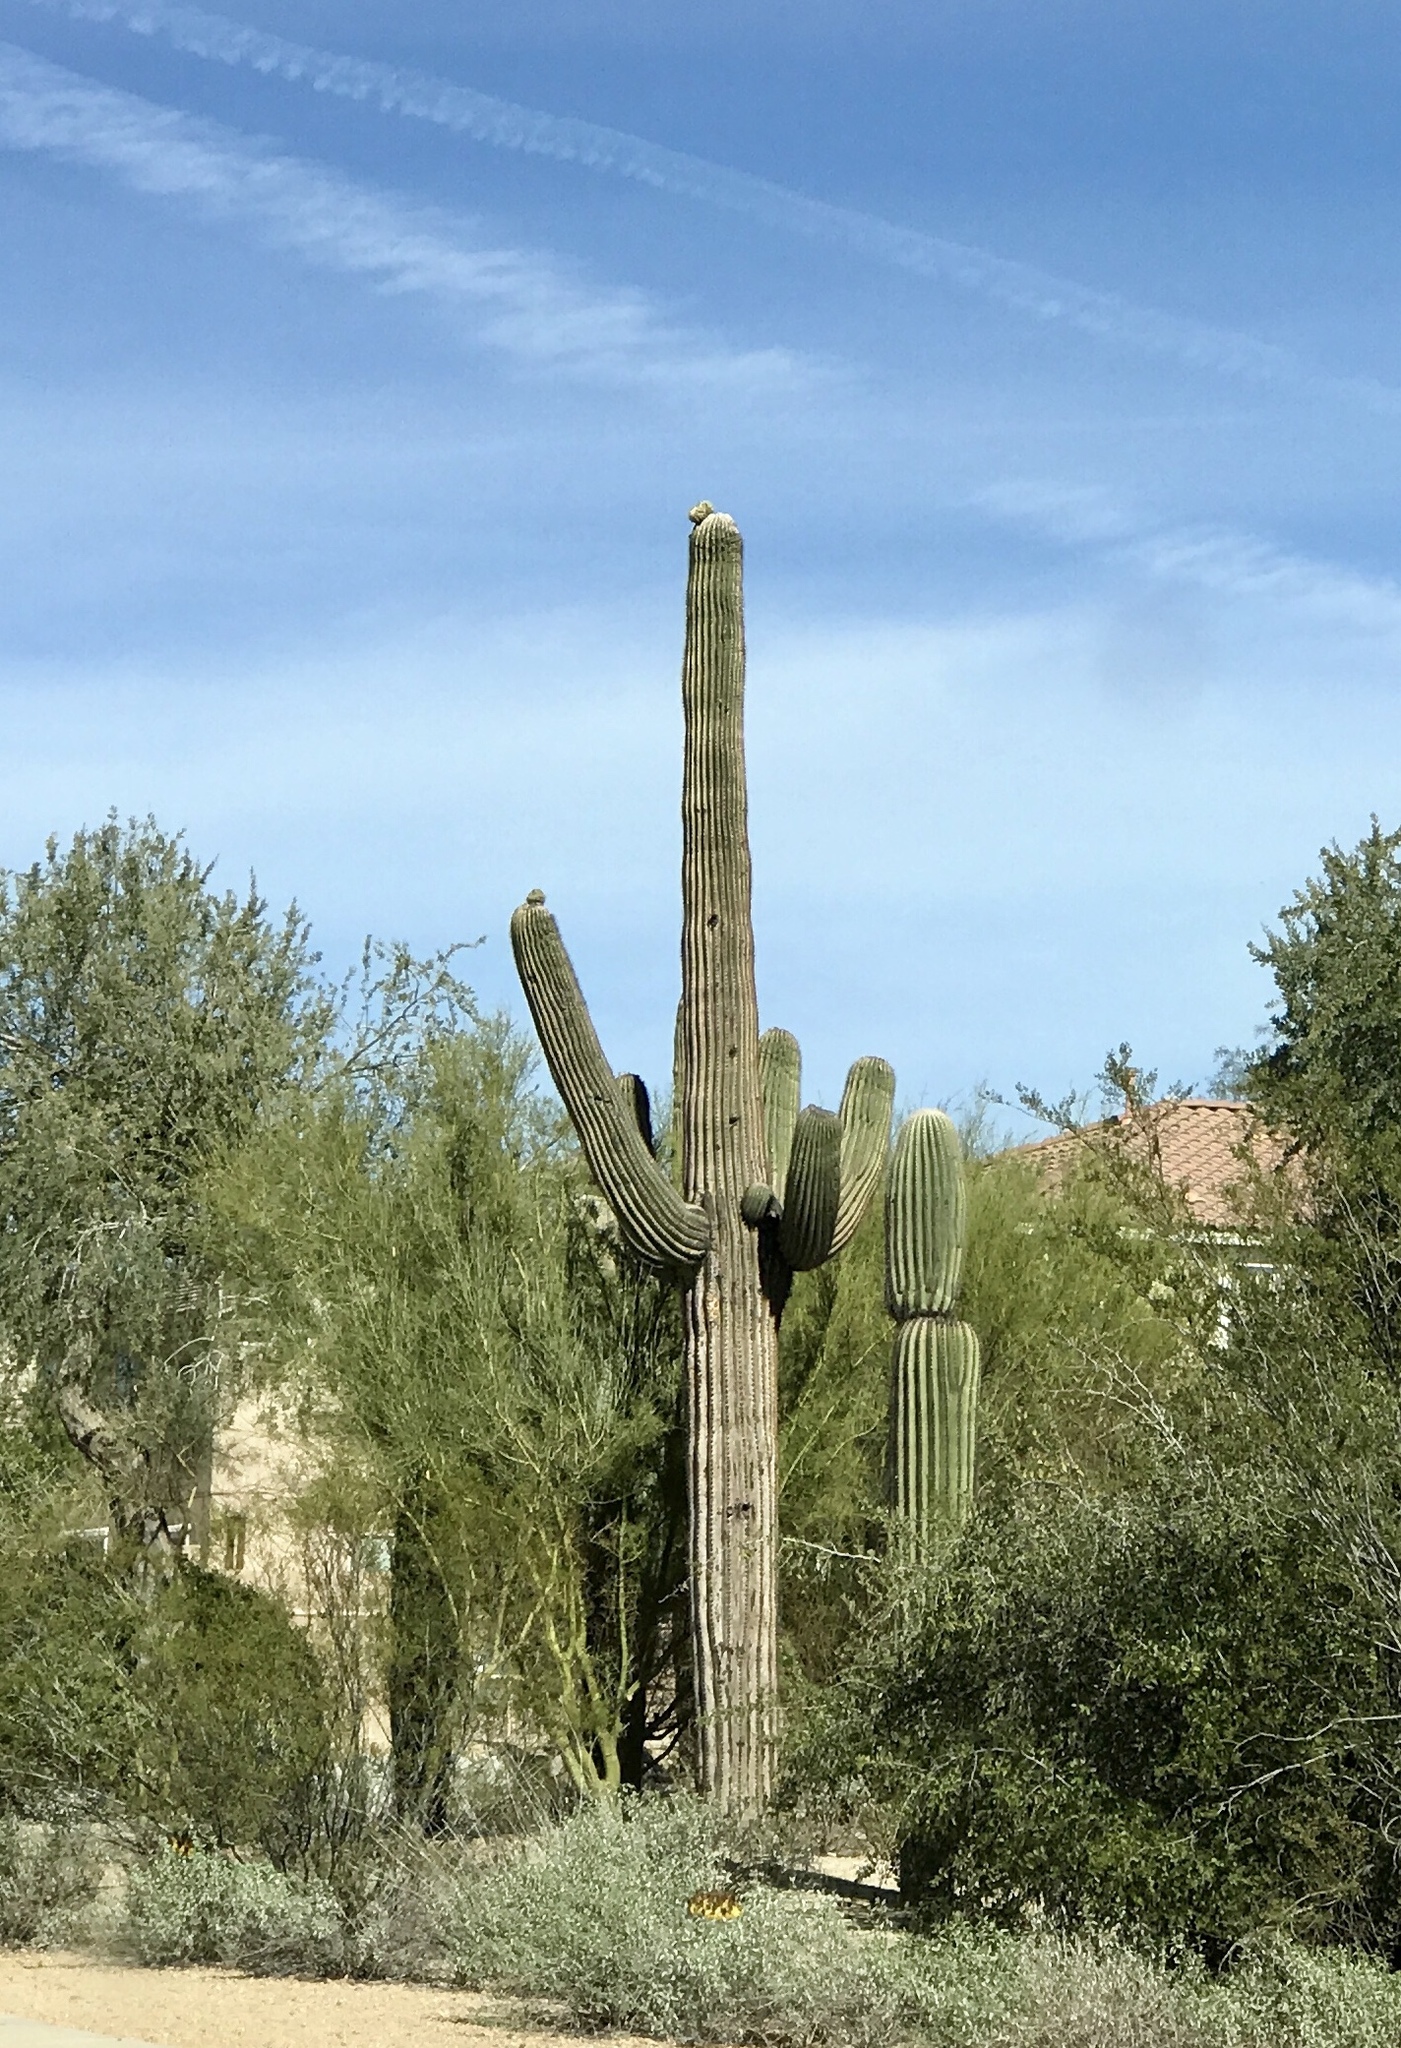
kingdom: Plantae
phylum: Tracheophyta
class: Magnoliopsida
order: Caryophyllales
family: Cactaceae
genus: Carnegiea
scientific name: Carnegiea gigantea
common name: Saguaro
